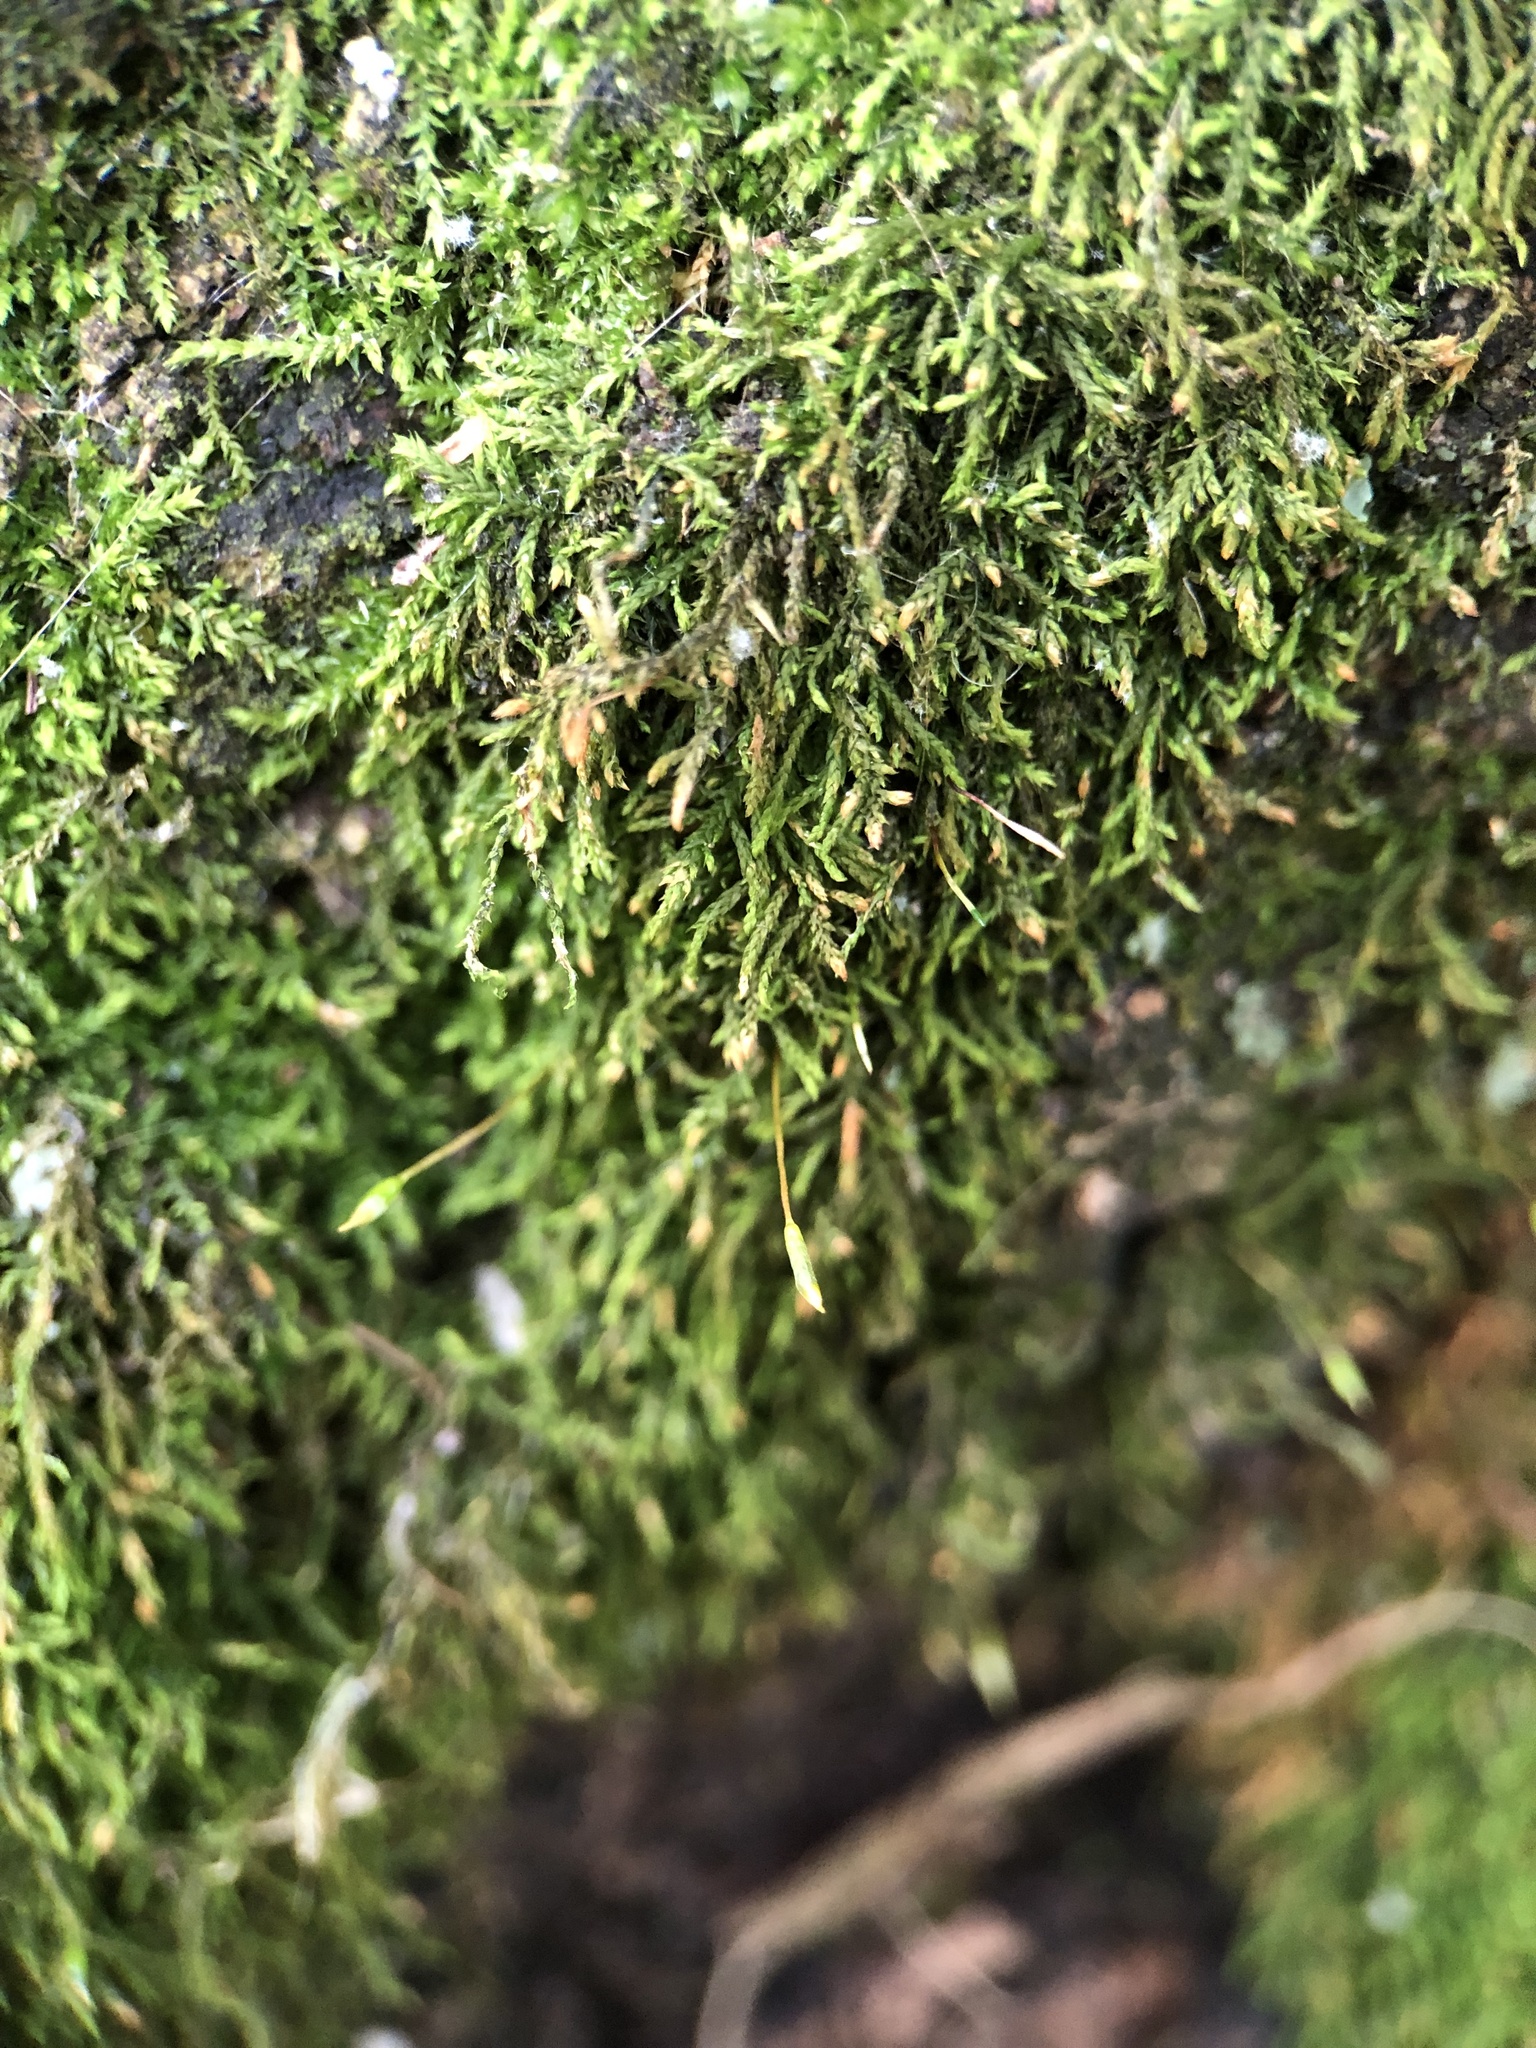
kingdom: Plantae
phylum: Bryophyta
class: Bryopsida
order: Hypnales
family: Leskeaceae
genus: Leskea
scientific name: Leskea polycarpa
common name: Many-fruited leske's moss
